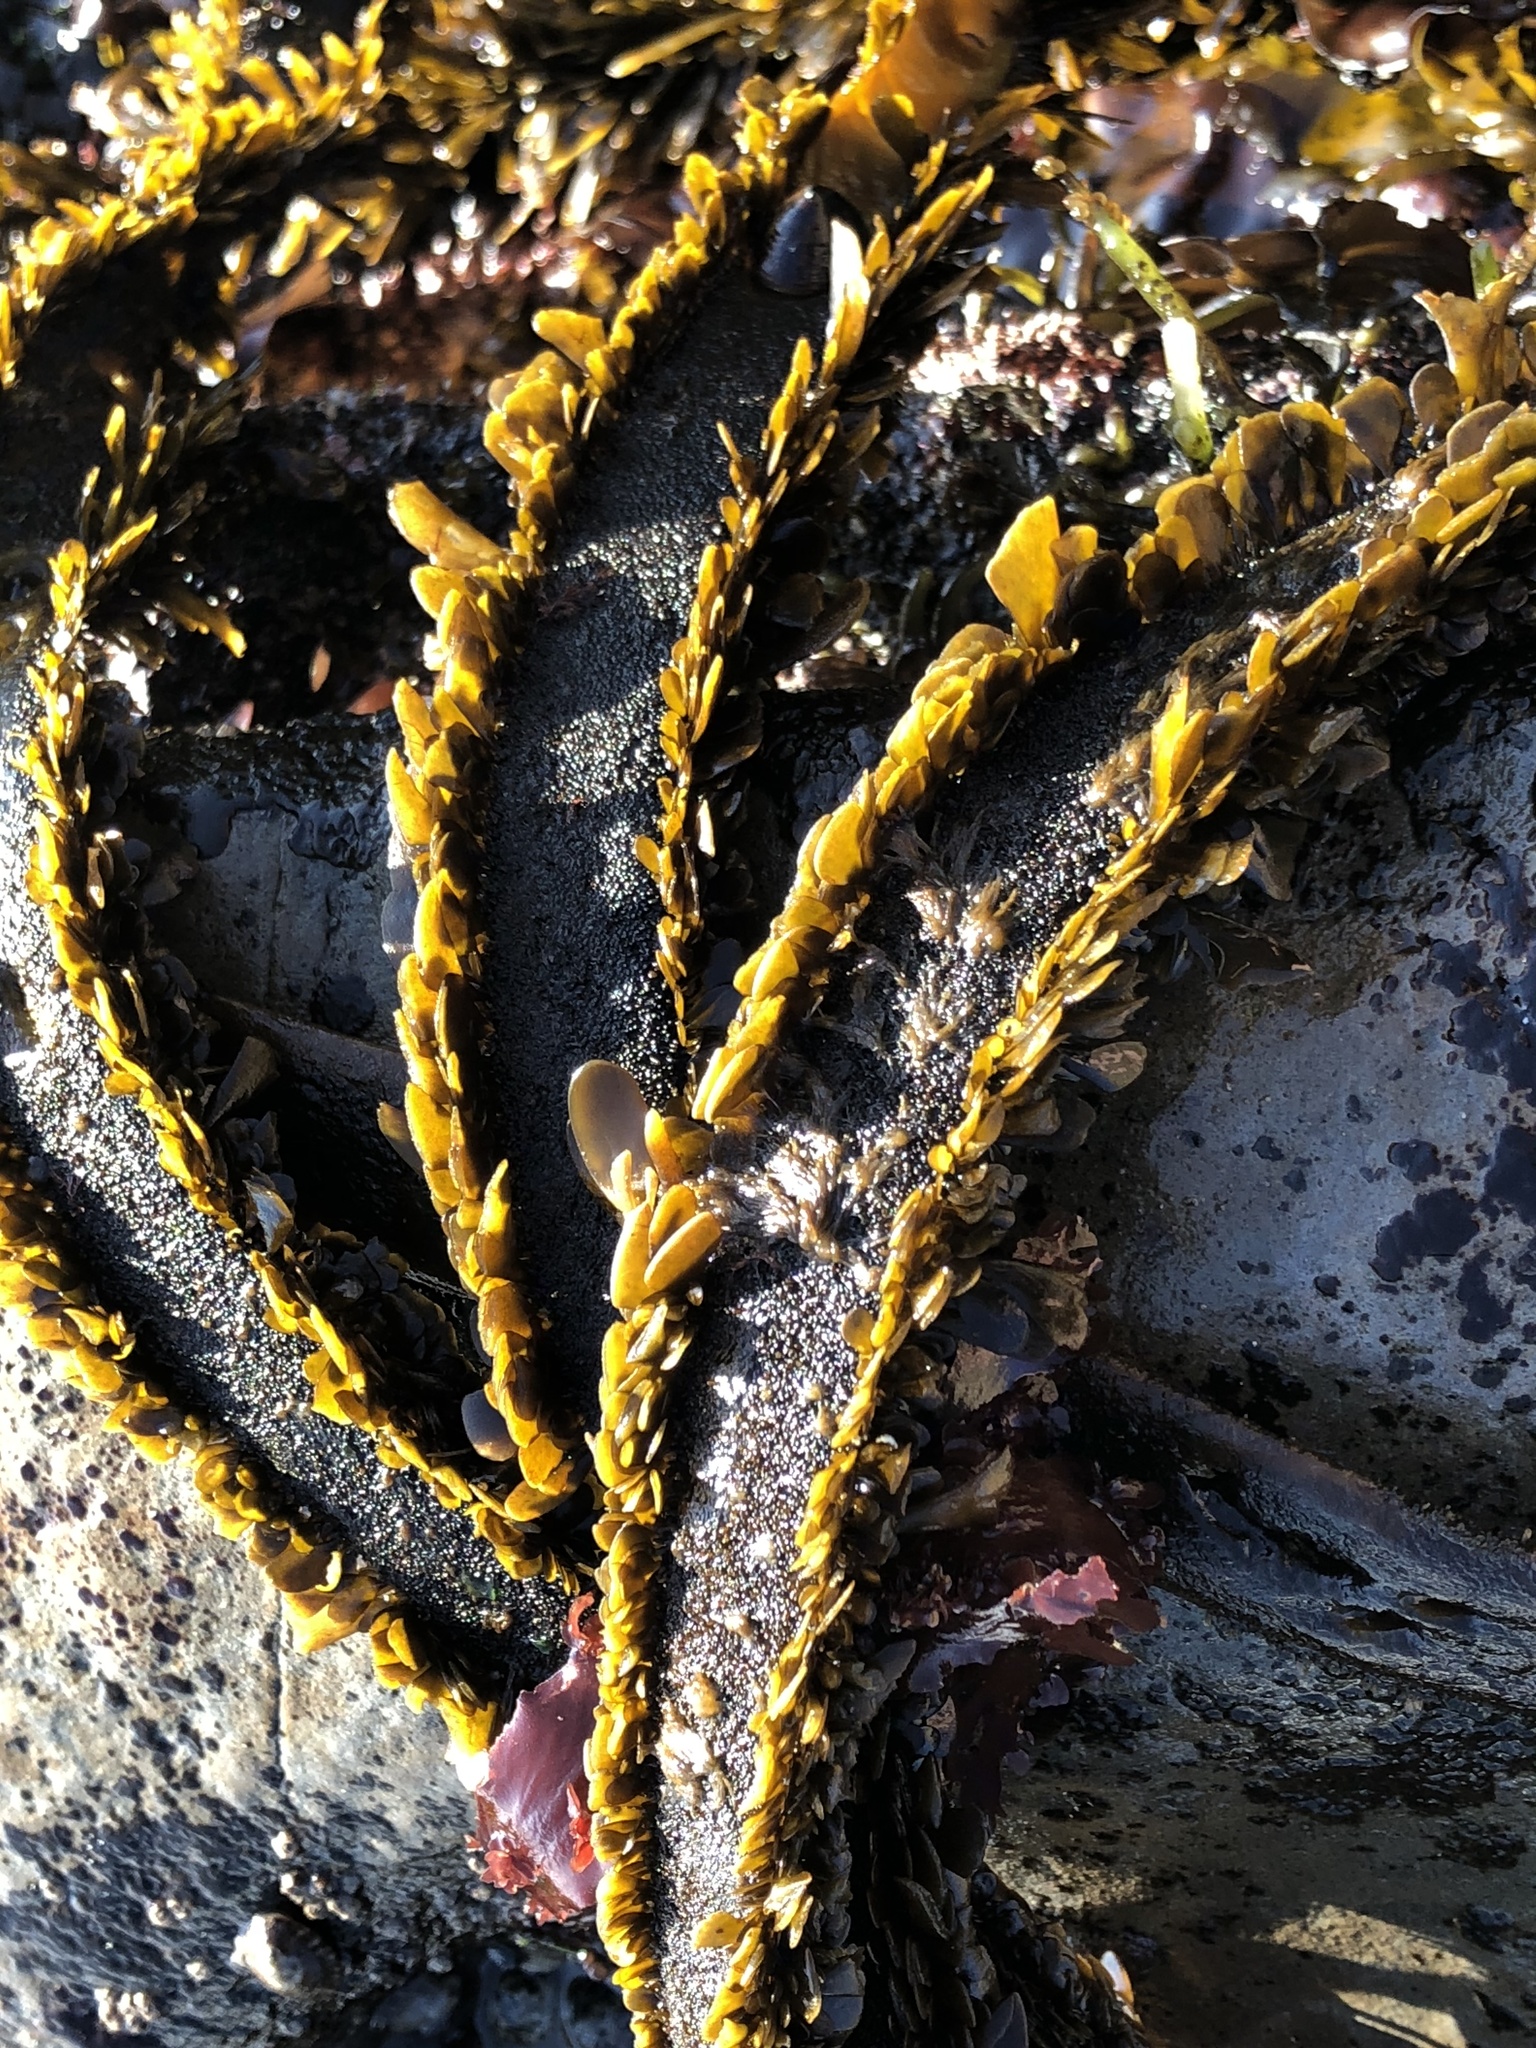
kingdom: Chromista
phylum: Ochrophyta
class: Phaeophyceae
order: Laminariales
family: Lessoniaceae
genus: Egregia
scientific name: Egregia menziesii
